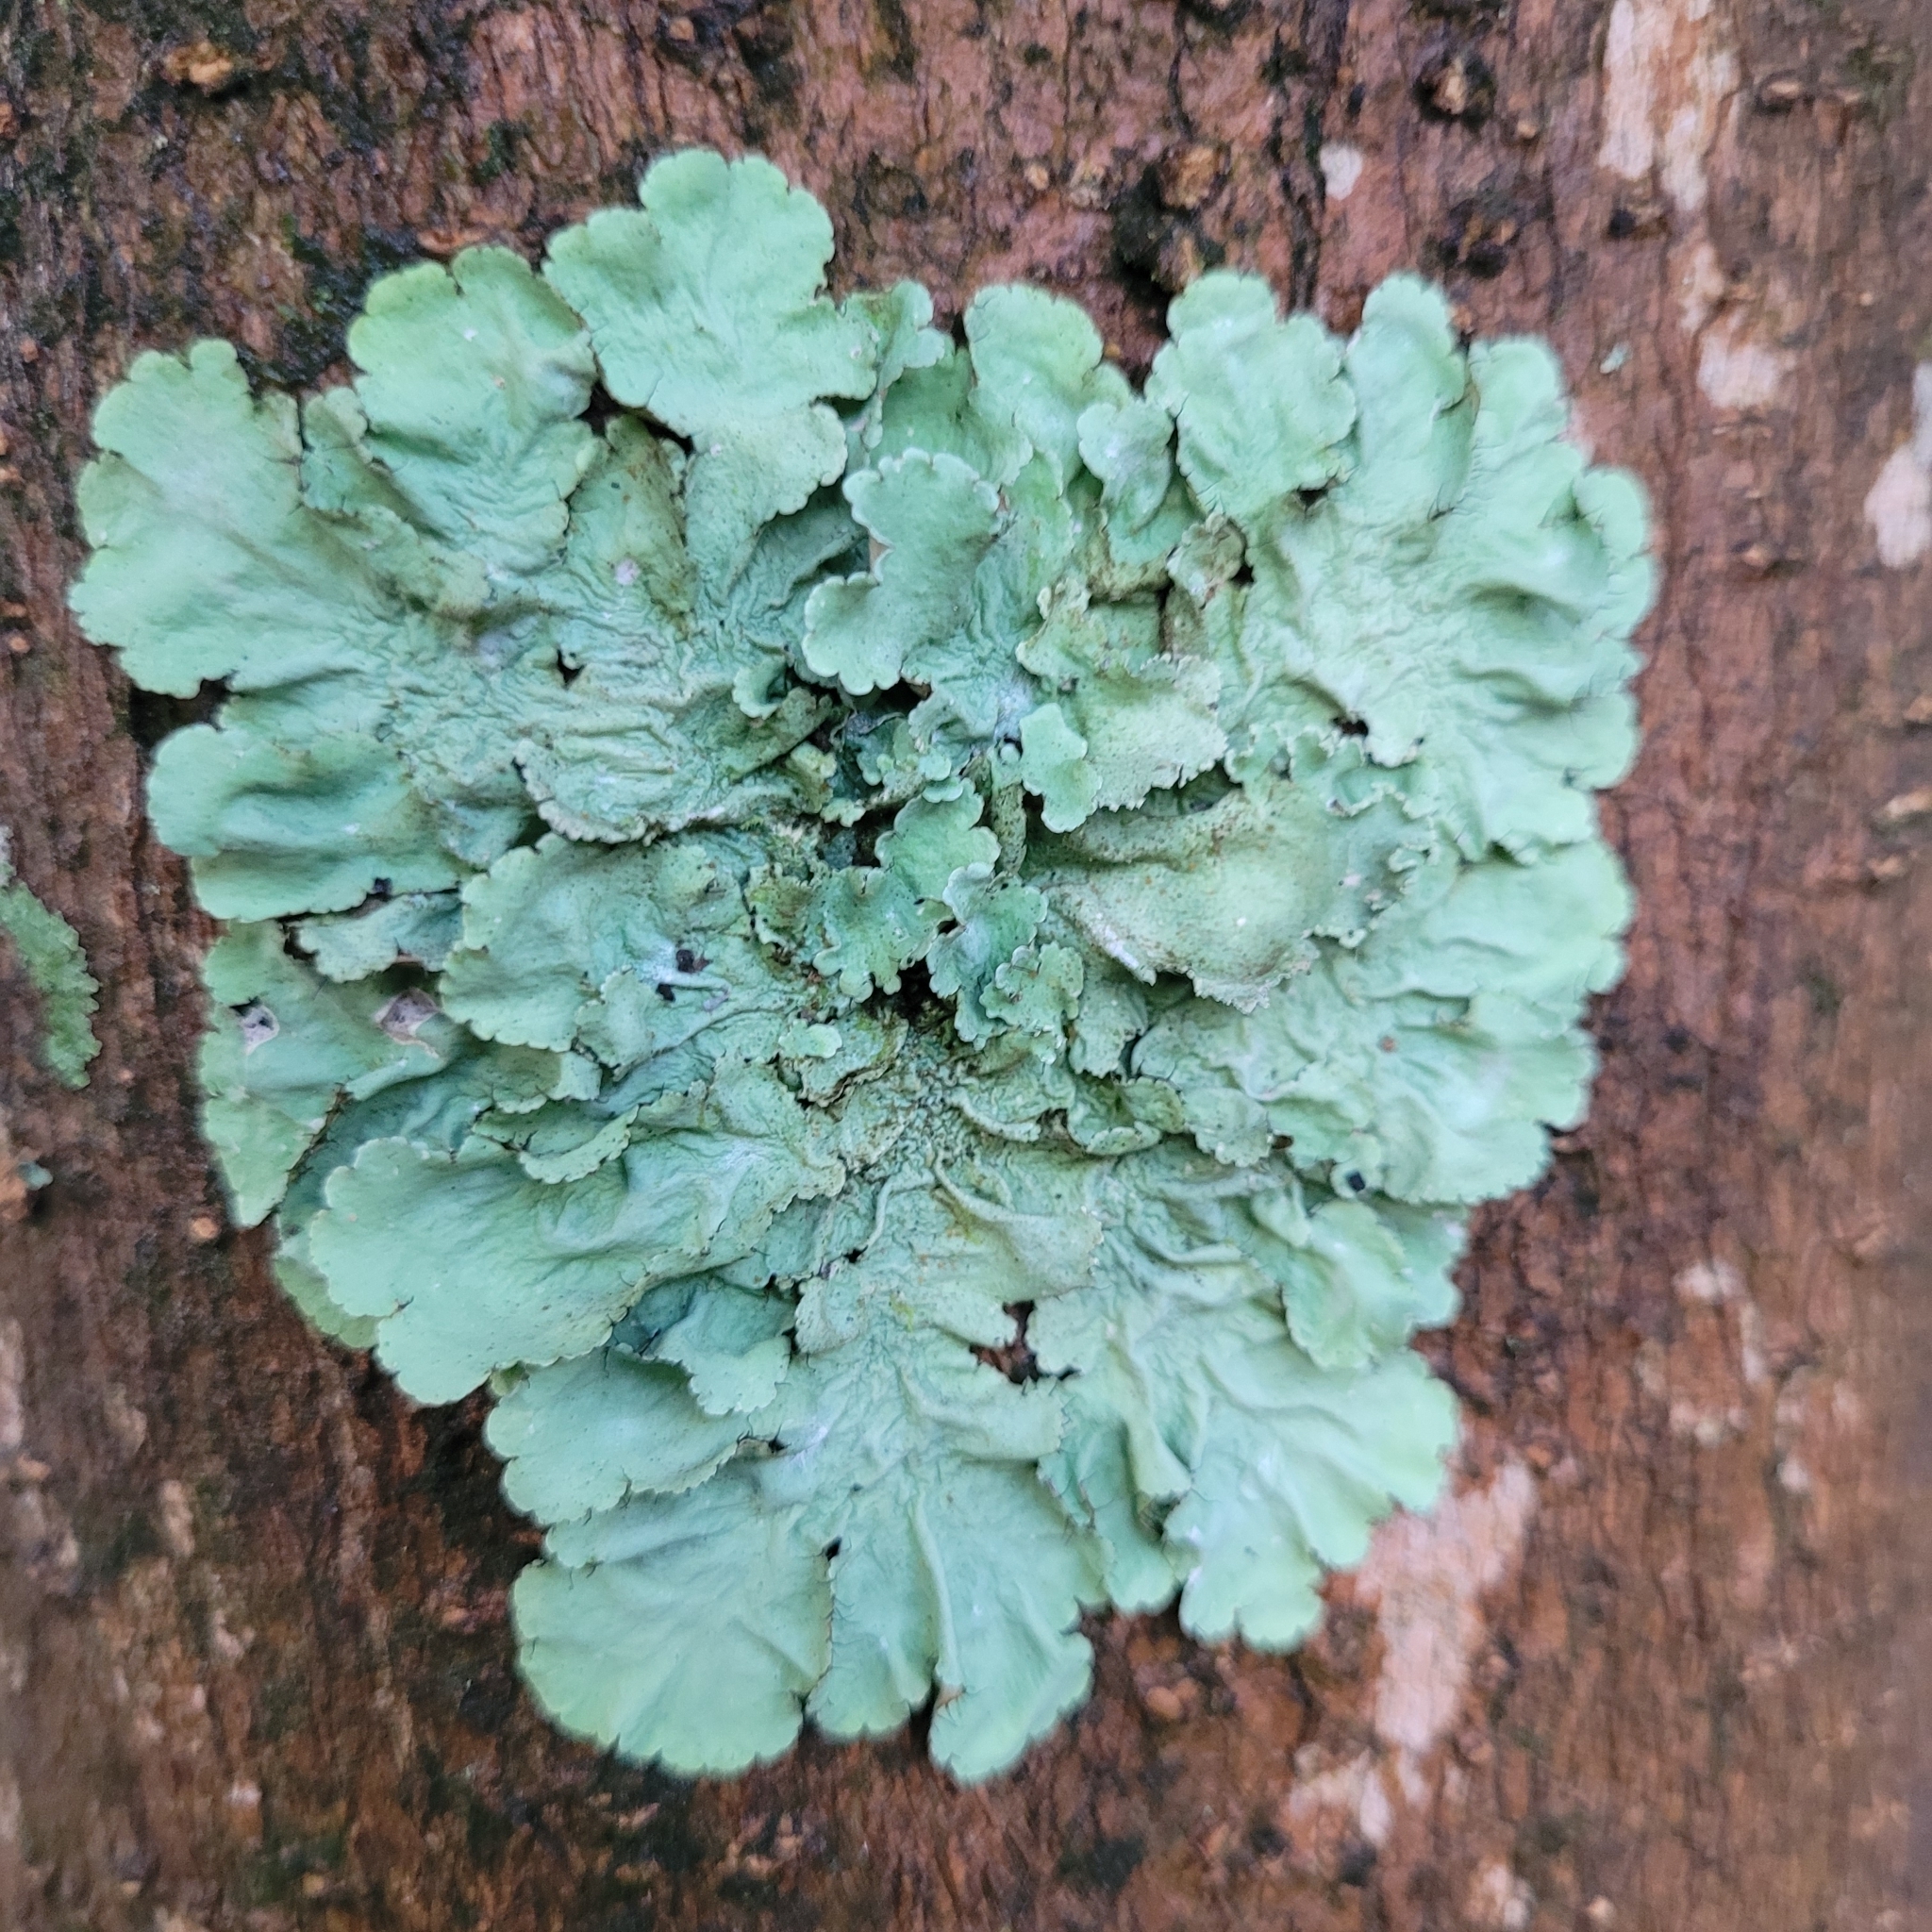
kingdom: Fungi
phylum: Ascomycota
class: Lecanoromycetes
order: Lecanorales
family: Parmeliaceae
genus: Flavoparmelia
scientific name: Flavoparmelia caperata
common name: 40-mile per hour lichen
